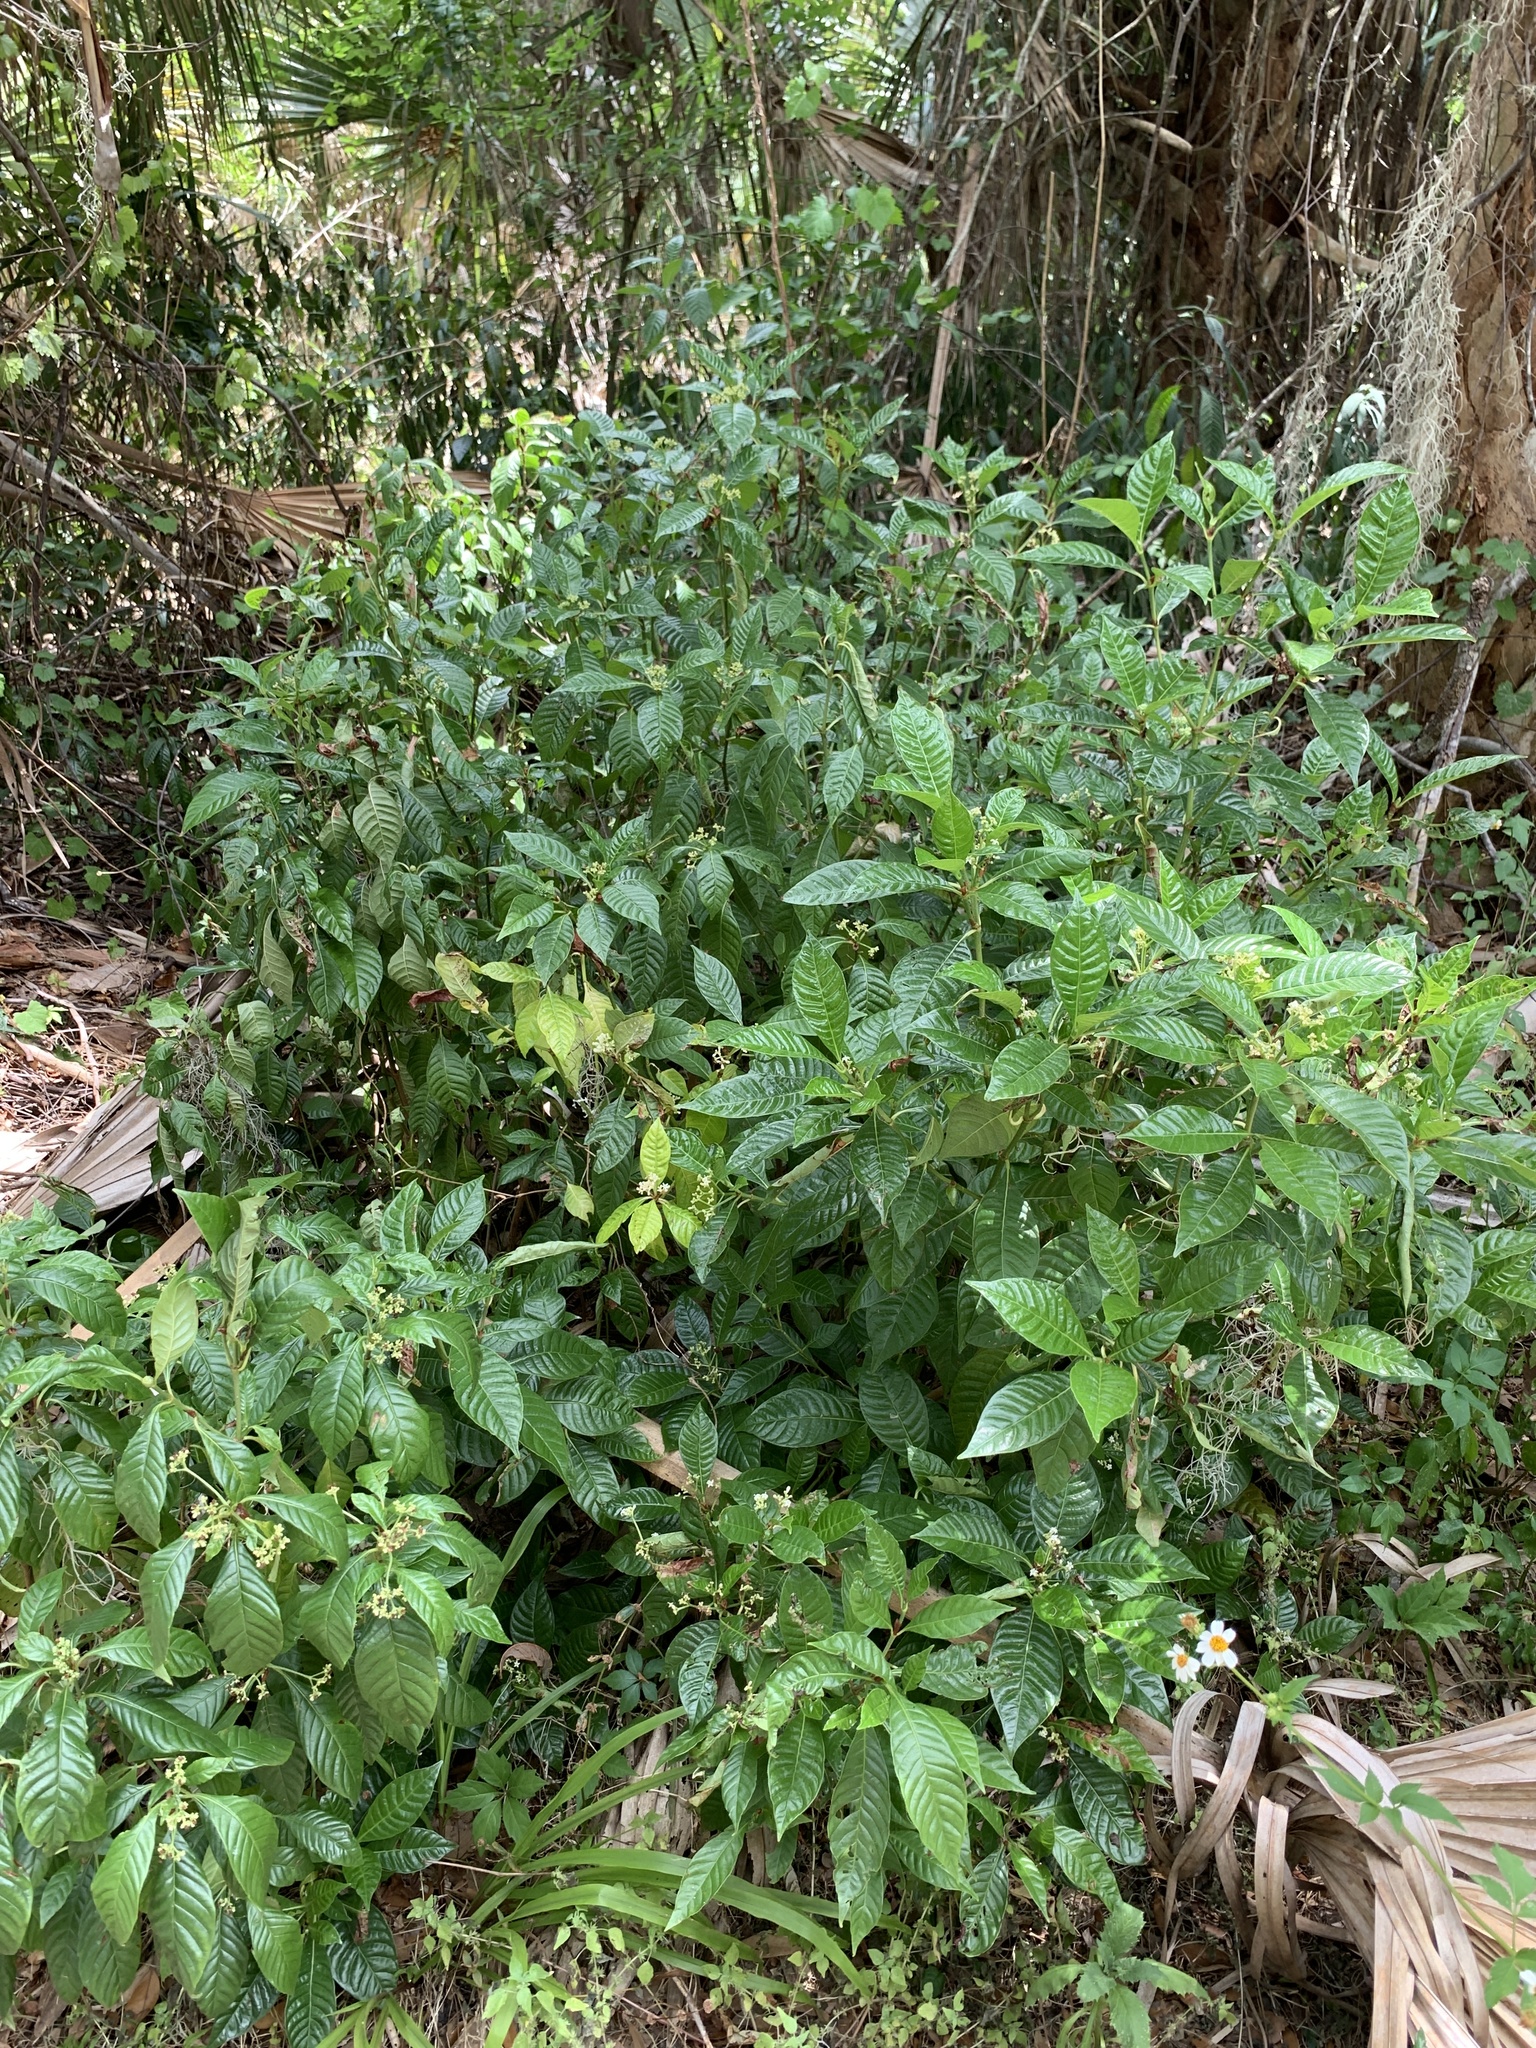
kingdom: Plantae
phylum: Tracheophyta
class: Magnoliopsida
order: Gentianales
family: Rubiaceae
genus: Psychotria
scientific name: Psychotria nervosa
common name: Bastard cankerberry
